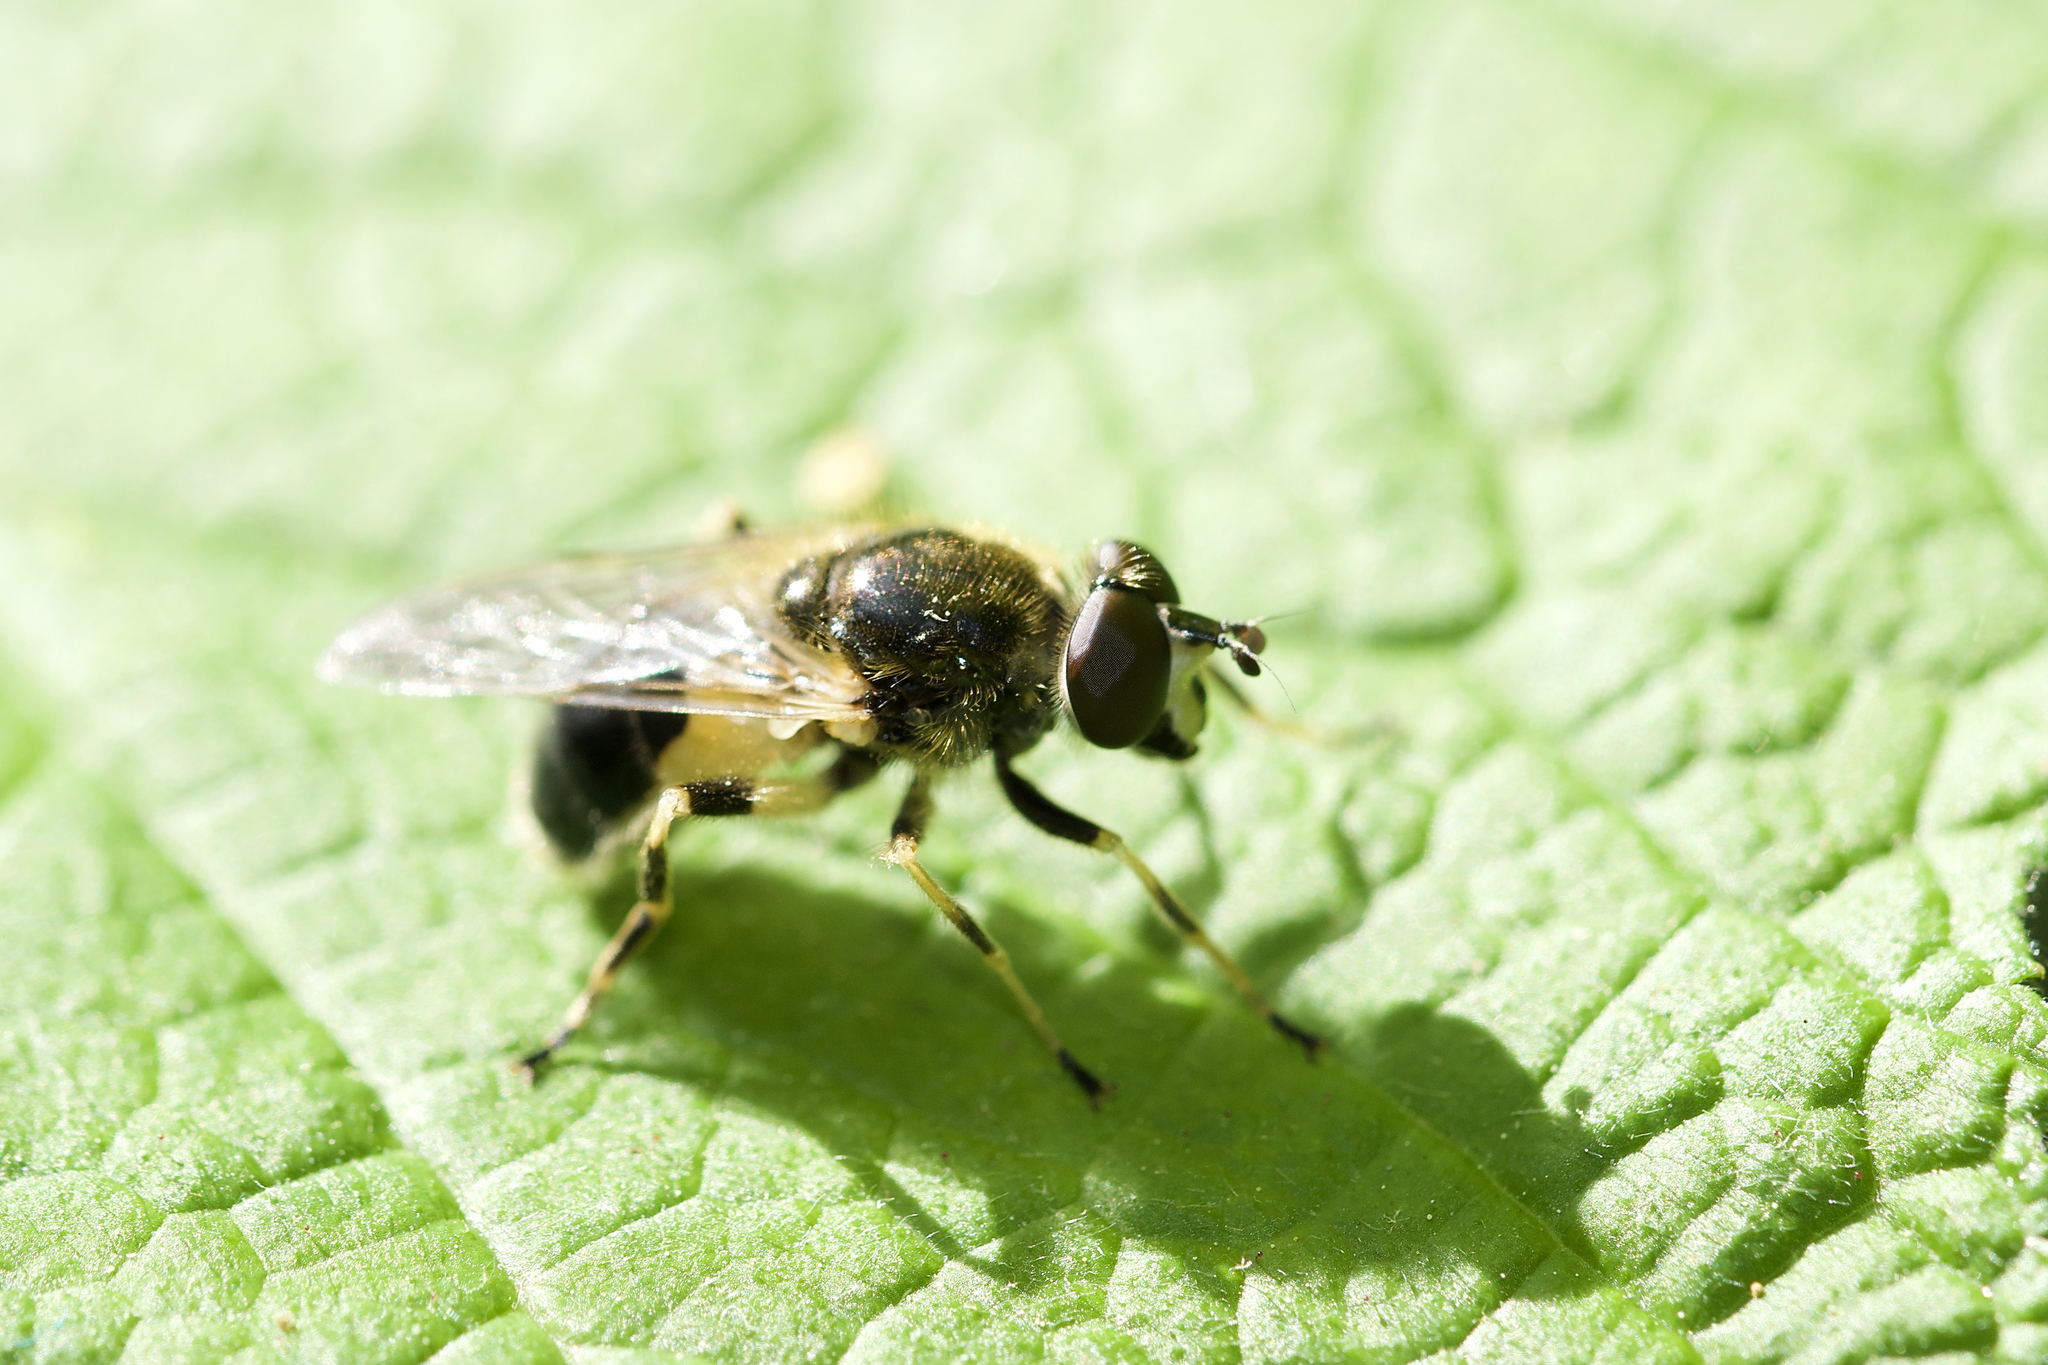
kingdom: Animalia
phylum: Arthropoda
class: Insecta
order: Diptera
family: Syrphidae
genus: Blera
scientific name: Blera badia
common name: Common wood fly
